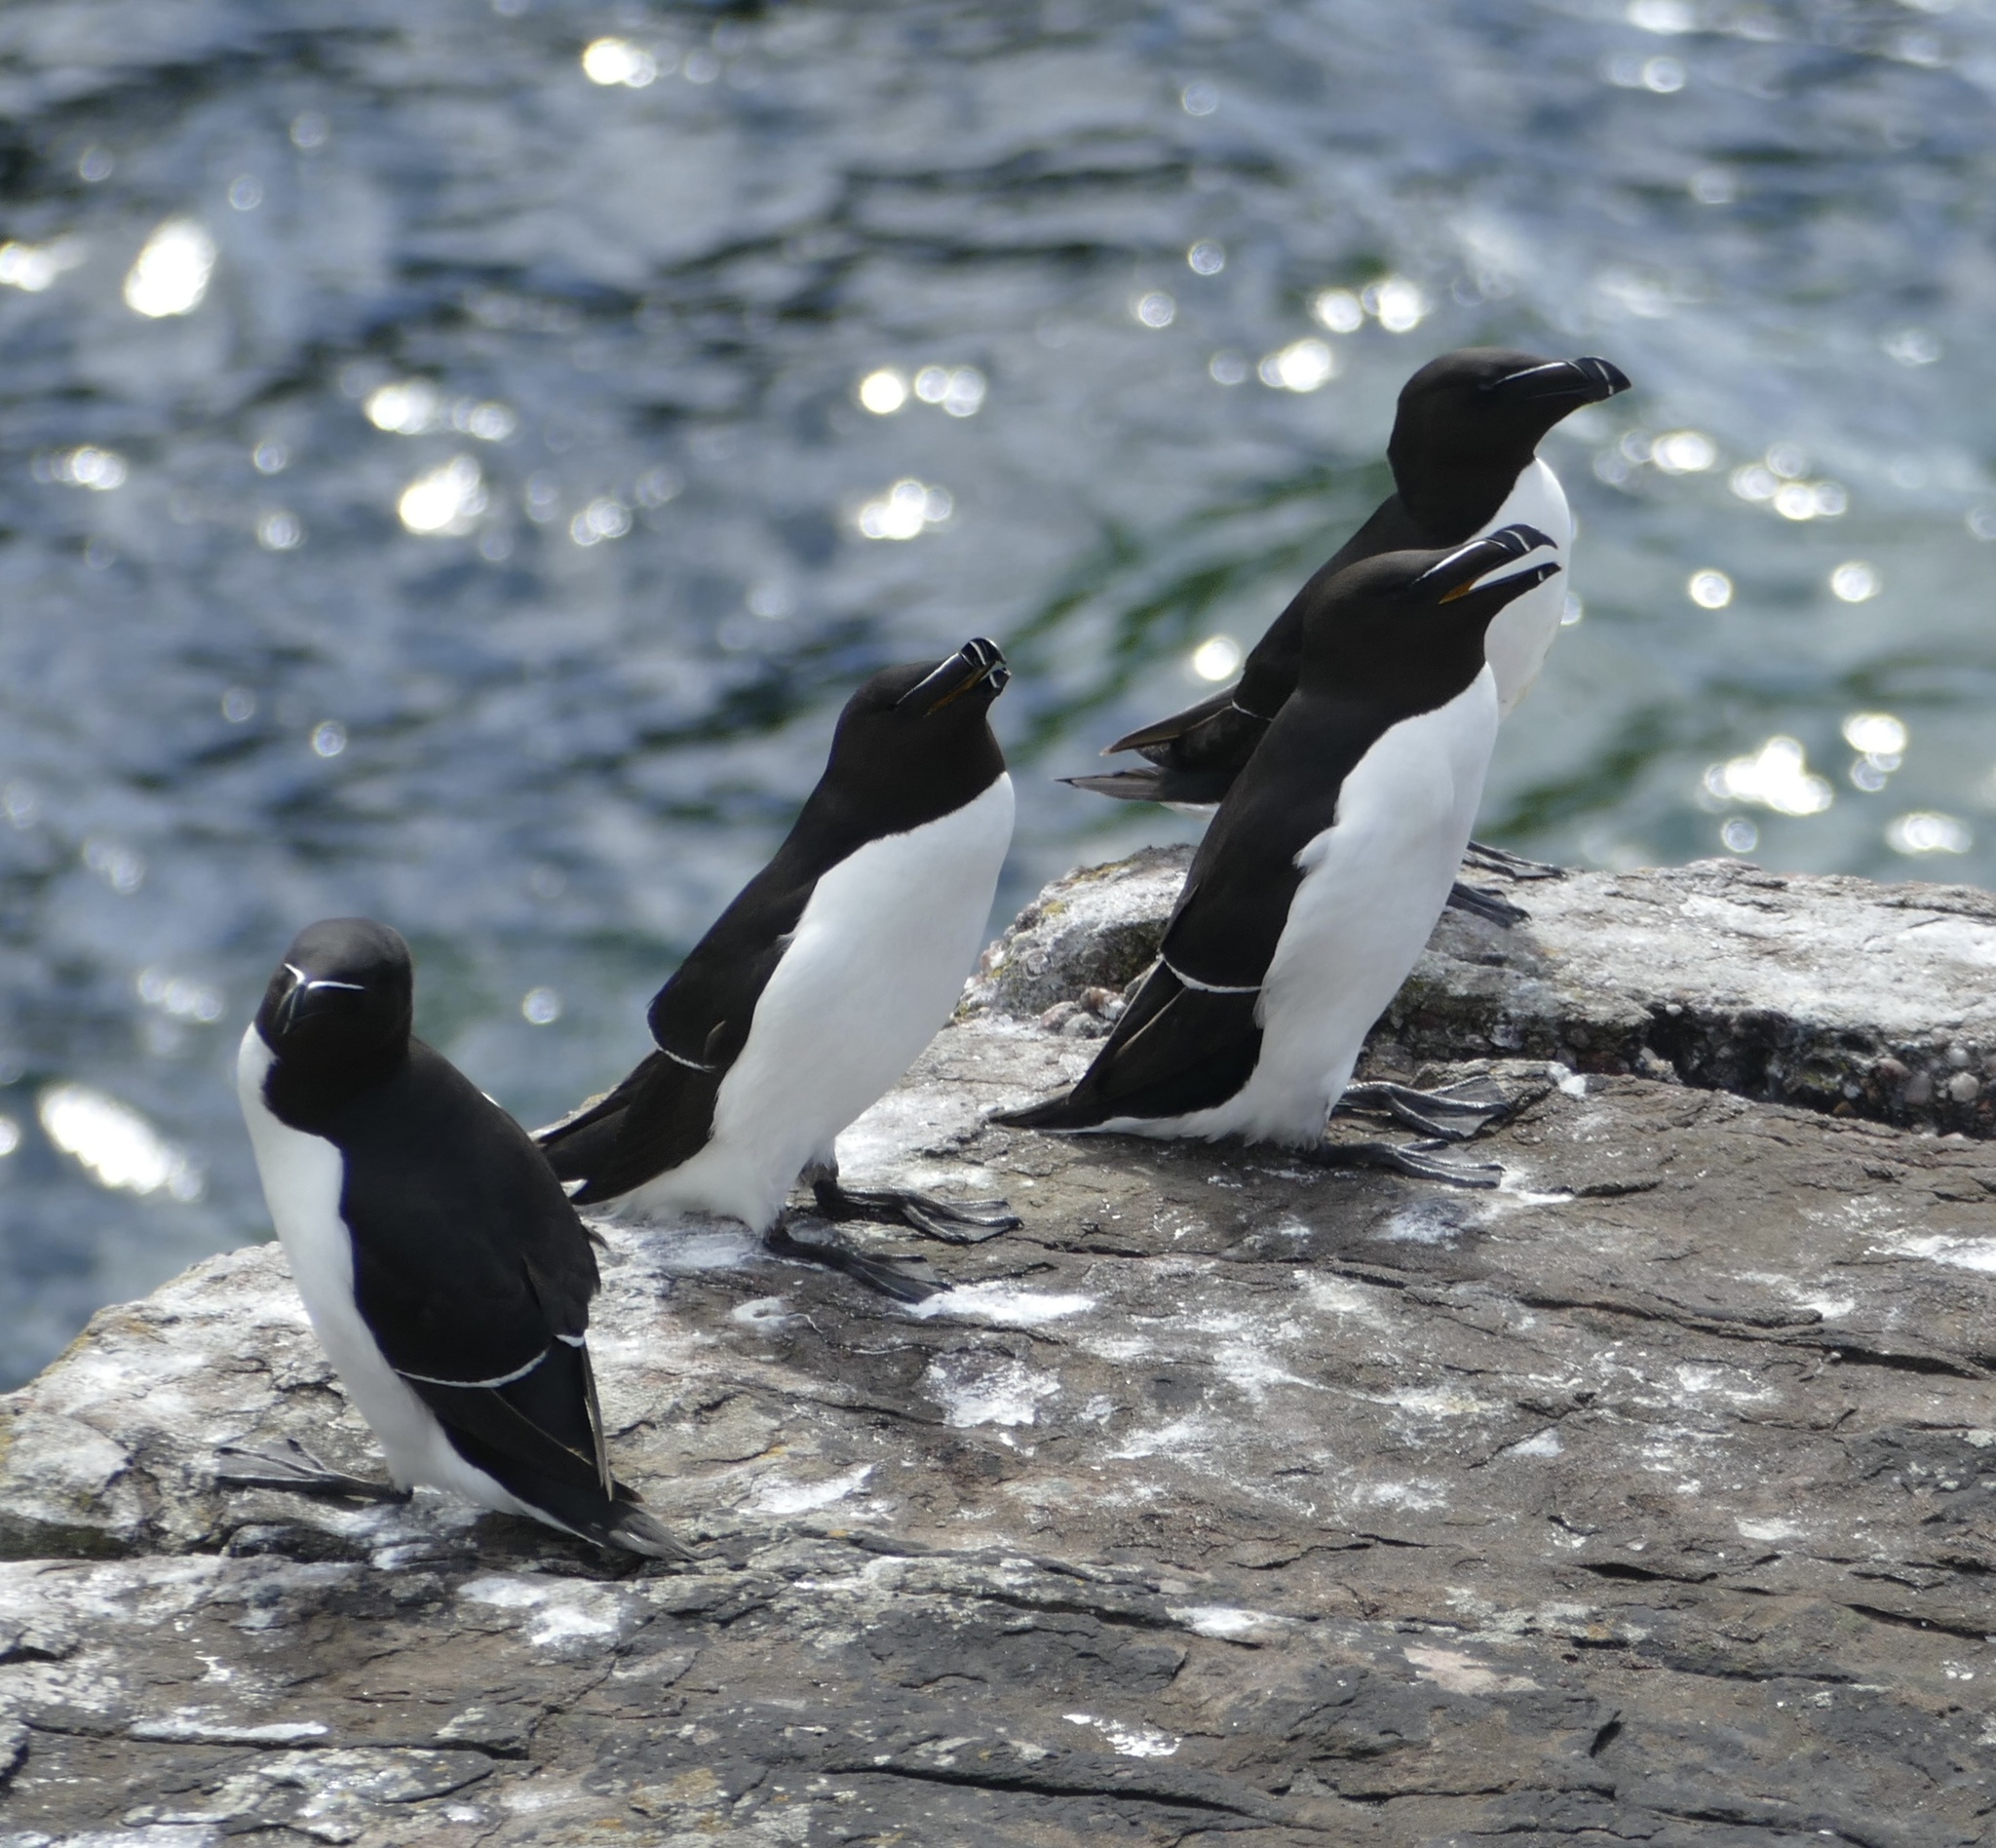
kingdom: Animalia
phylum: Chordata
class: Aves
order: Charadriiformes
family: Alcidae
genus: Alca
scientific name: Alca torda
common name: Razorbill
